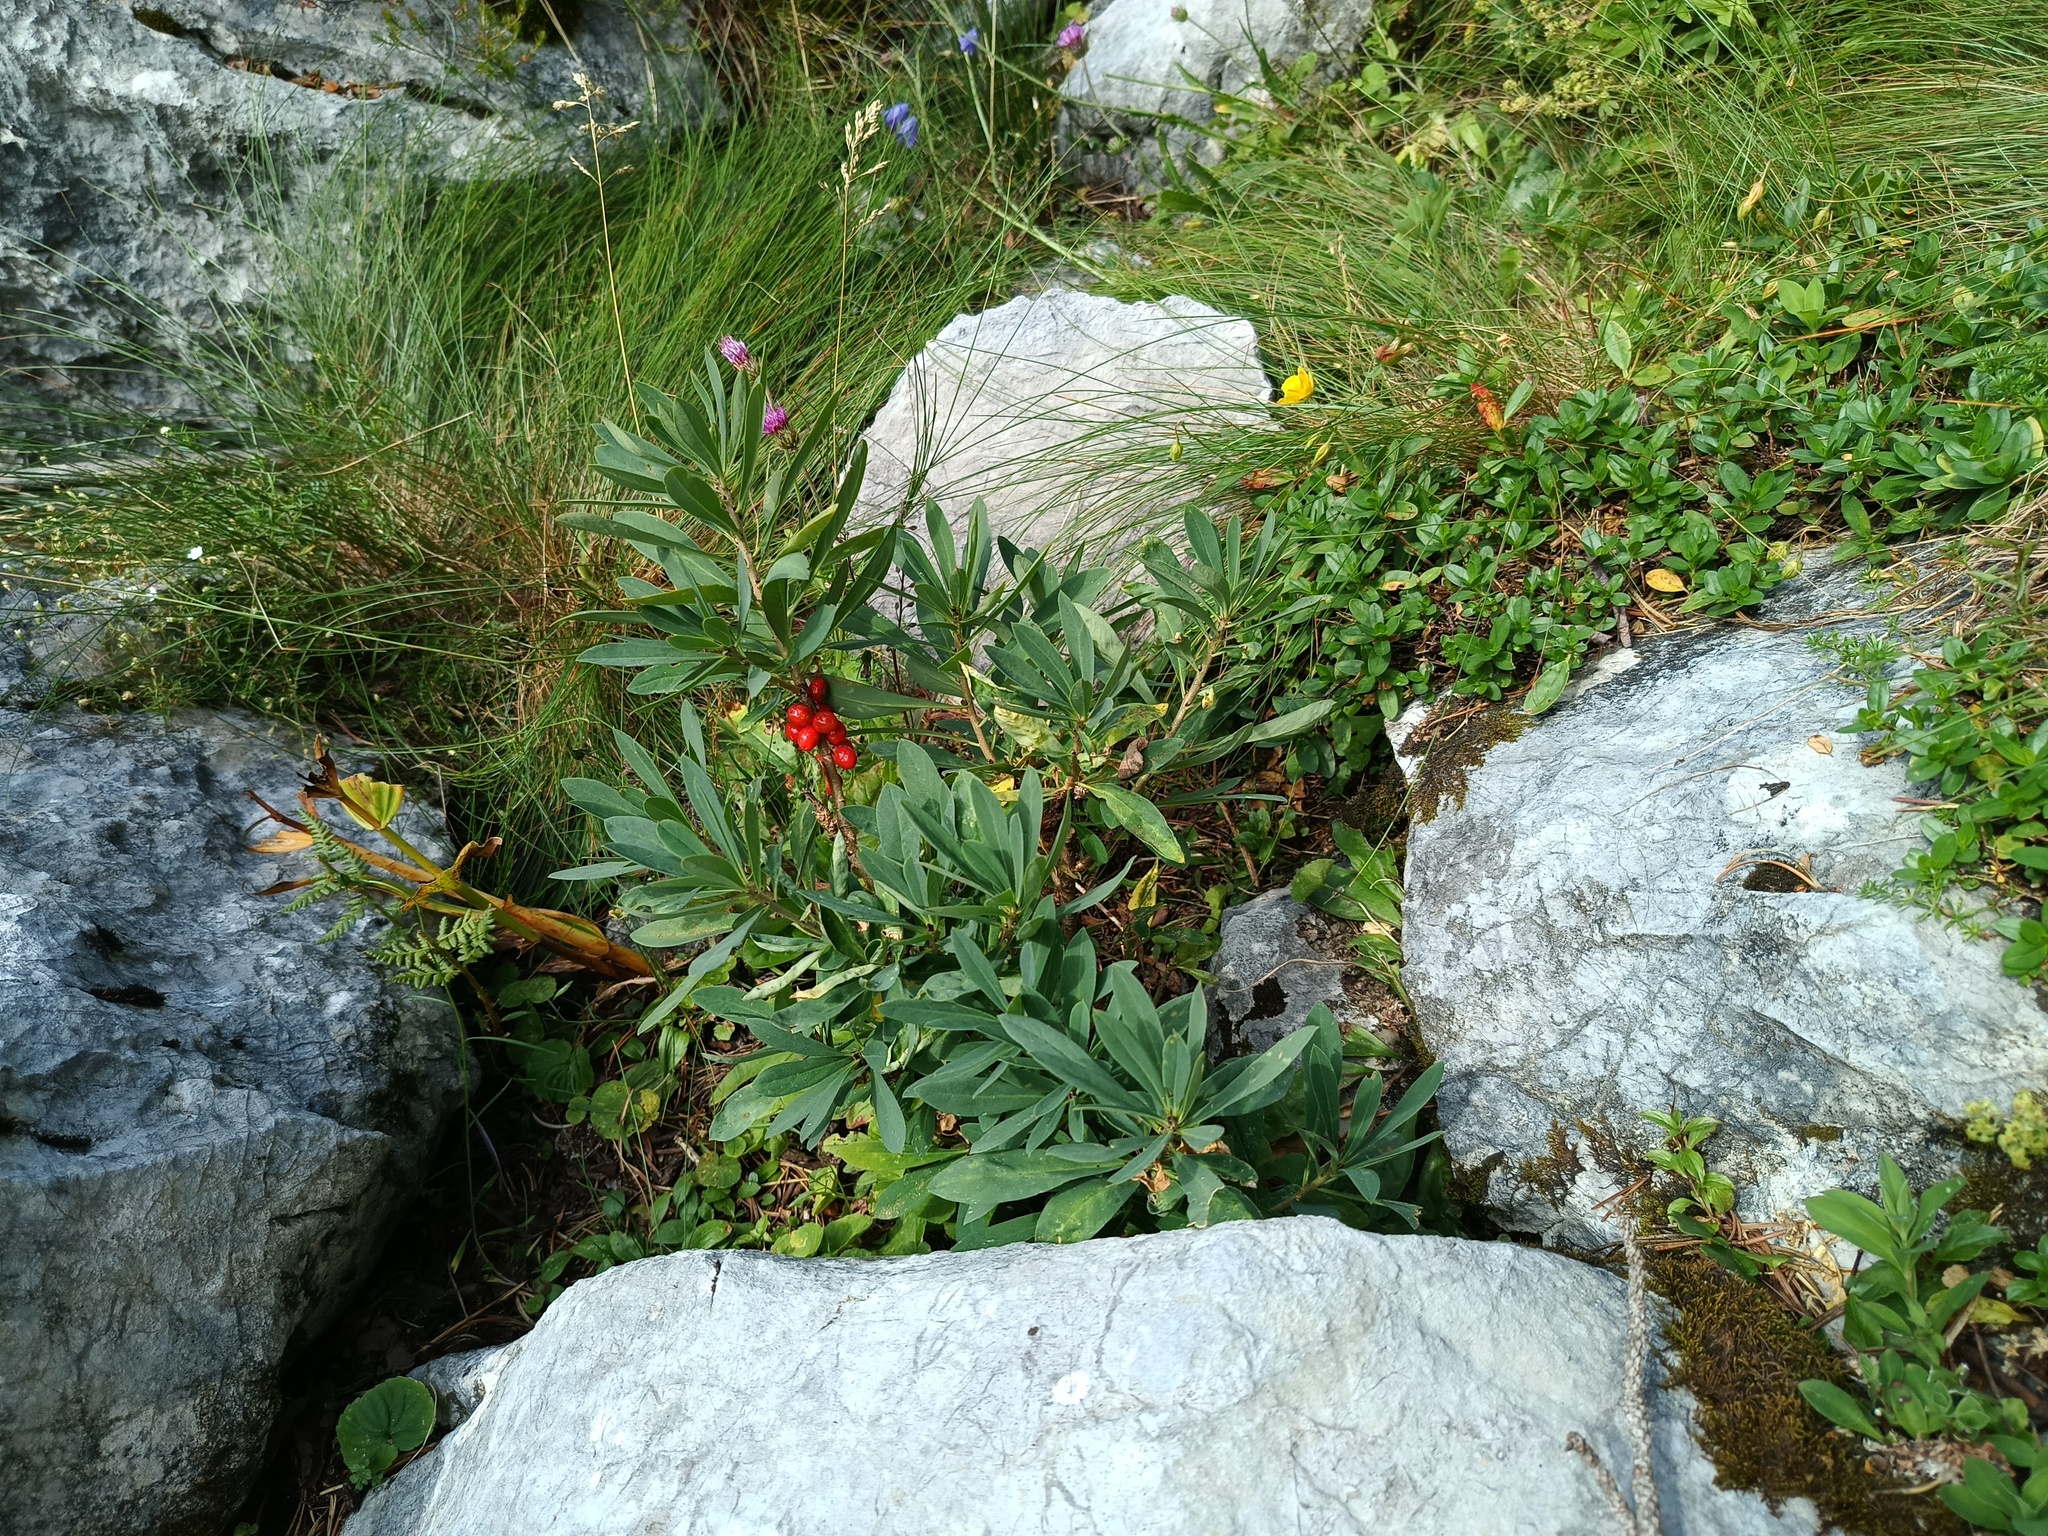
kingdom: Plantae
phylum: Tracheophyta
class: Magnoliopsida
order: Malvales
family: Thymelaeaceae
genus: Daphne
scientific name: Daphne mezereum
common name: Mezereon
